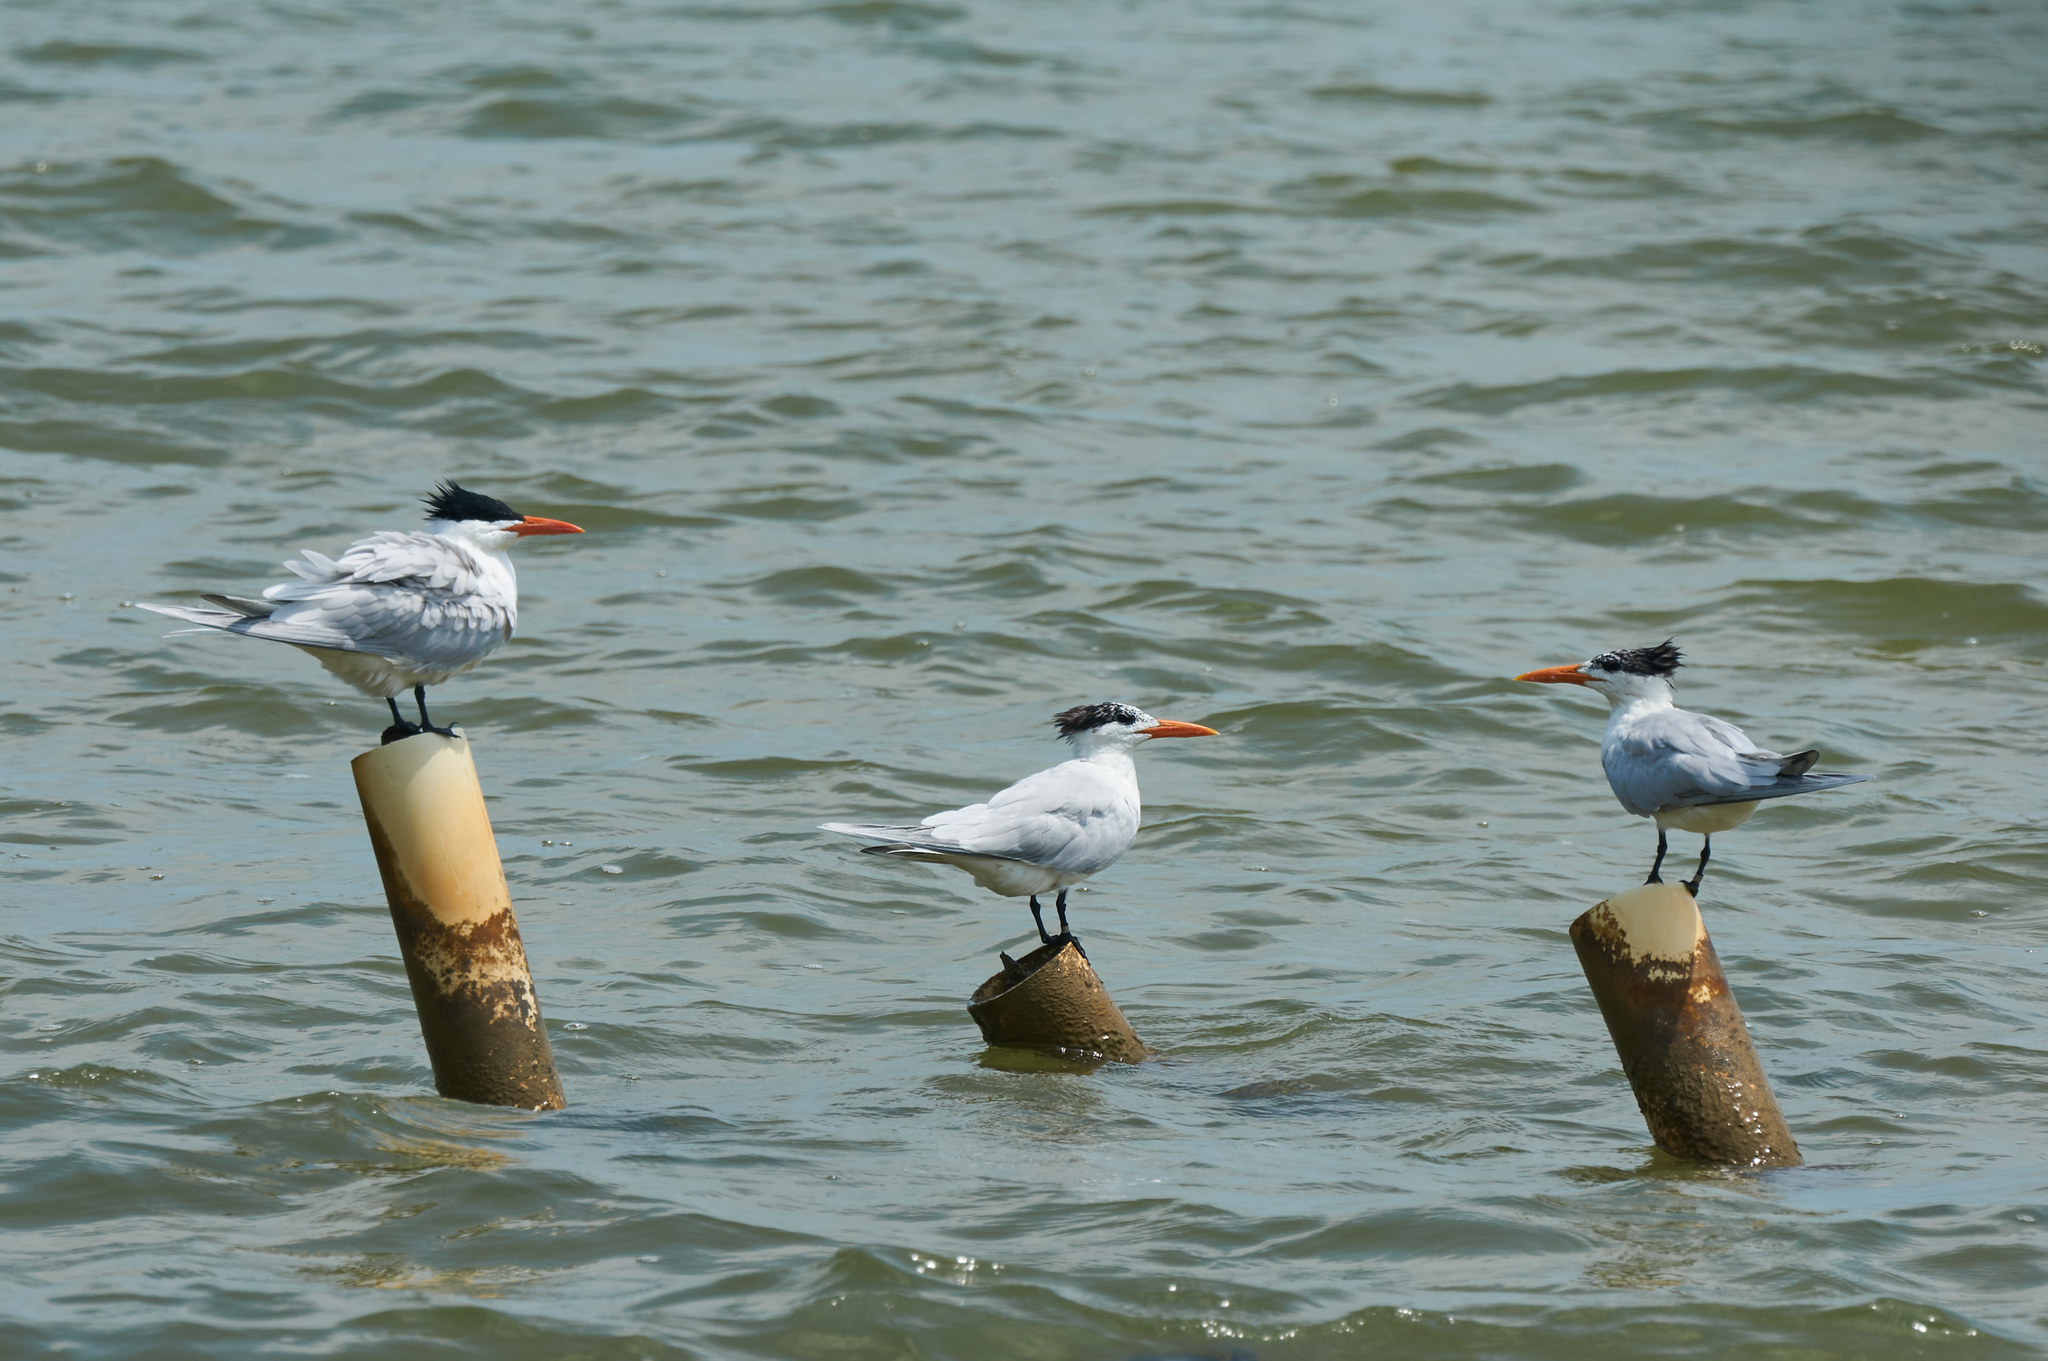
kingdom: Animalia
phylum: Chordata
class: Aves
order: Charadriiformes
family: Laridae
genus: Thalasseus
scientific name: Thalasseus maximus
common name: Royal tern
